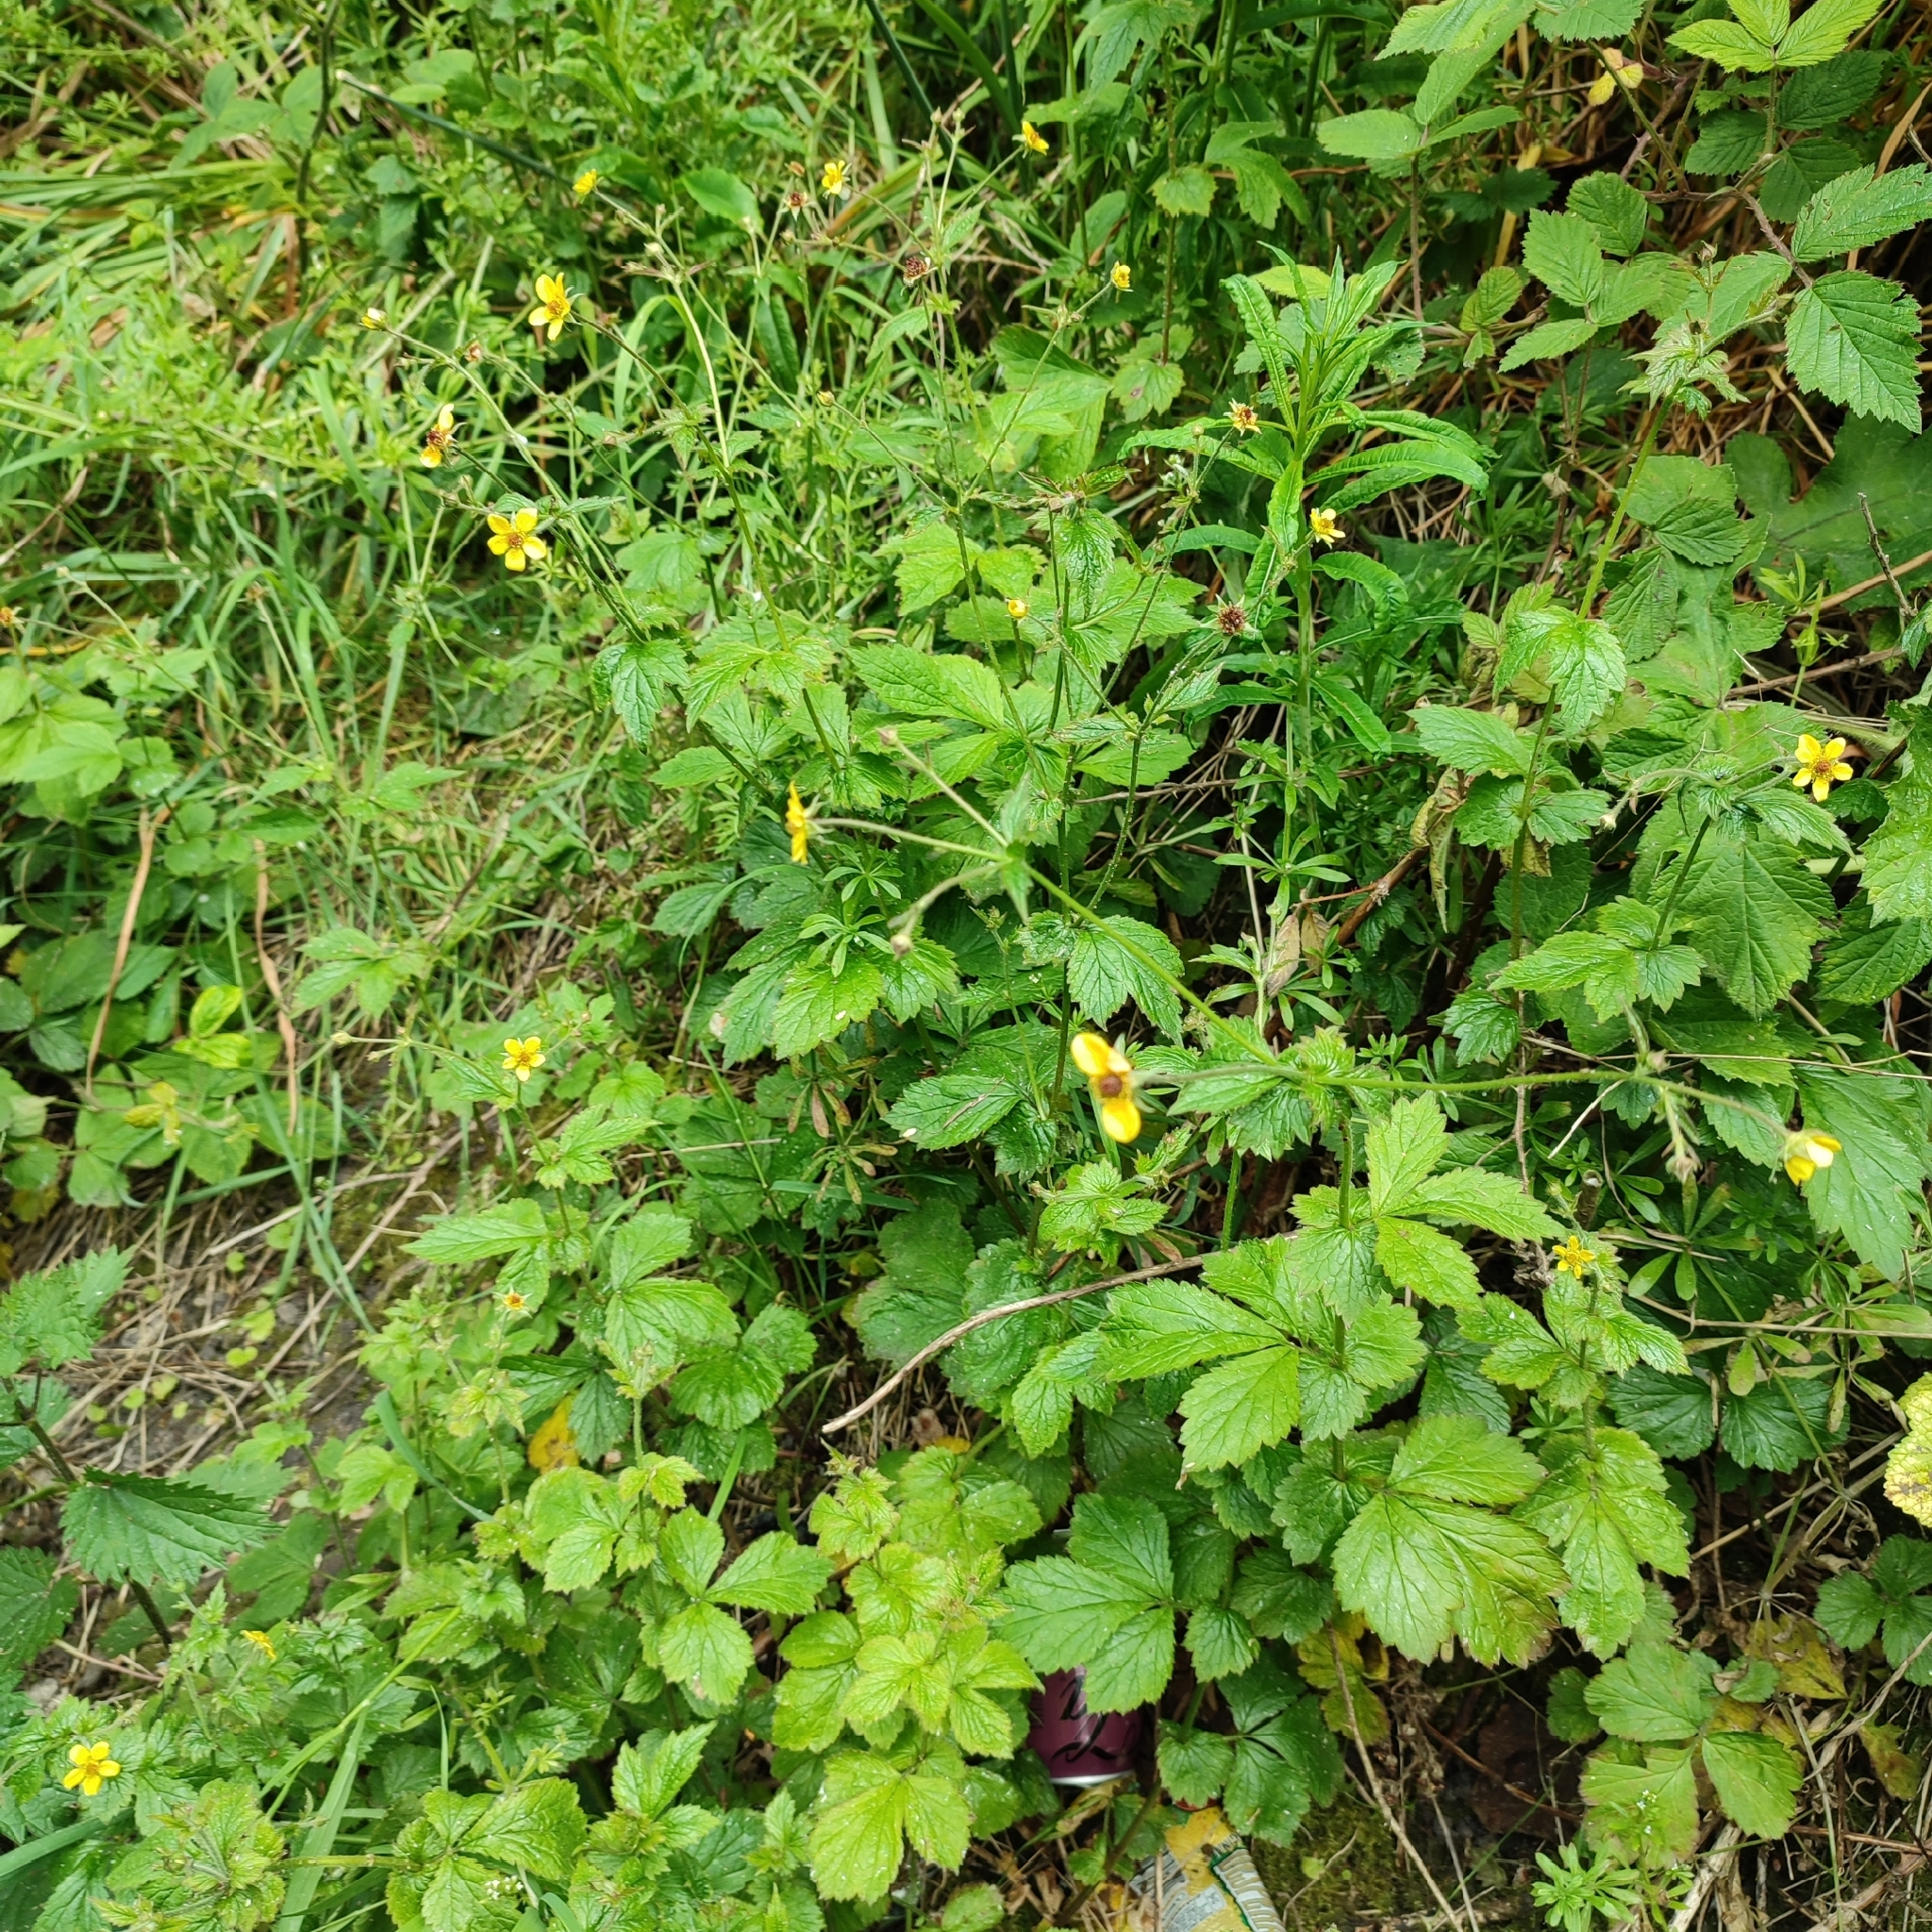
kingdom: Plantae
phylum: Tracheophyta
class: Magnoliopsida
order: Rosales
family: Rosaceae
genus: Geum
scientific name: Geum urbanum
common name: Wood avens
